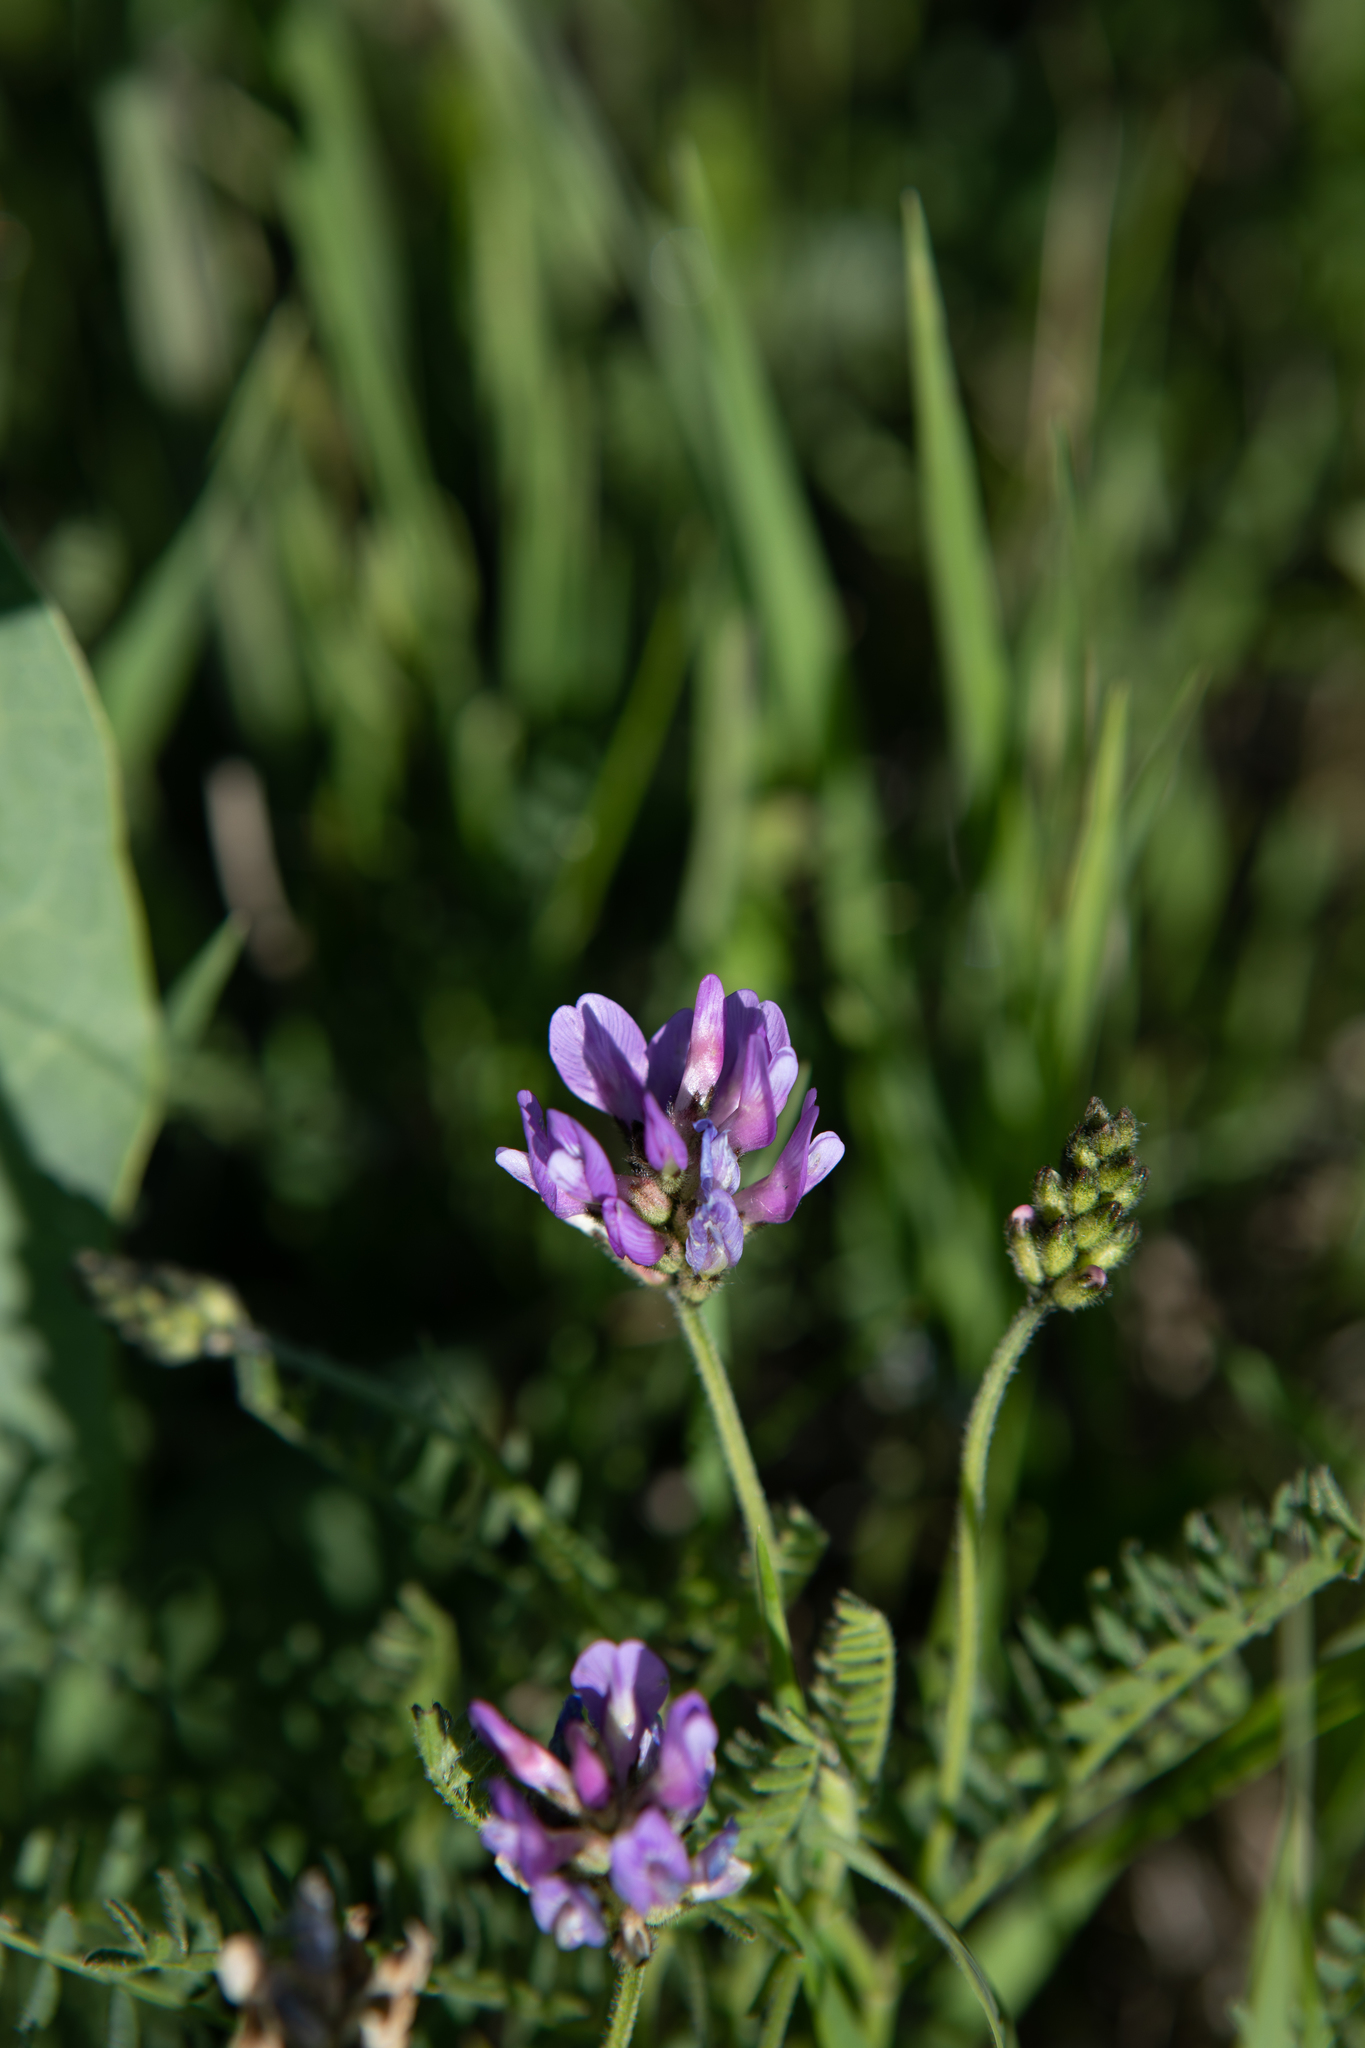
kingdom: Plantae
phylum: Tracheophyta
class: Magnoliopsida
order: Fabales
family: Fabaceae
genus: Astragalus
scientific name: Astragalus danicus
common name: Purple milk-vetch
